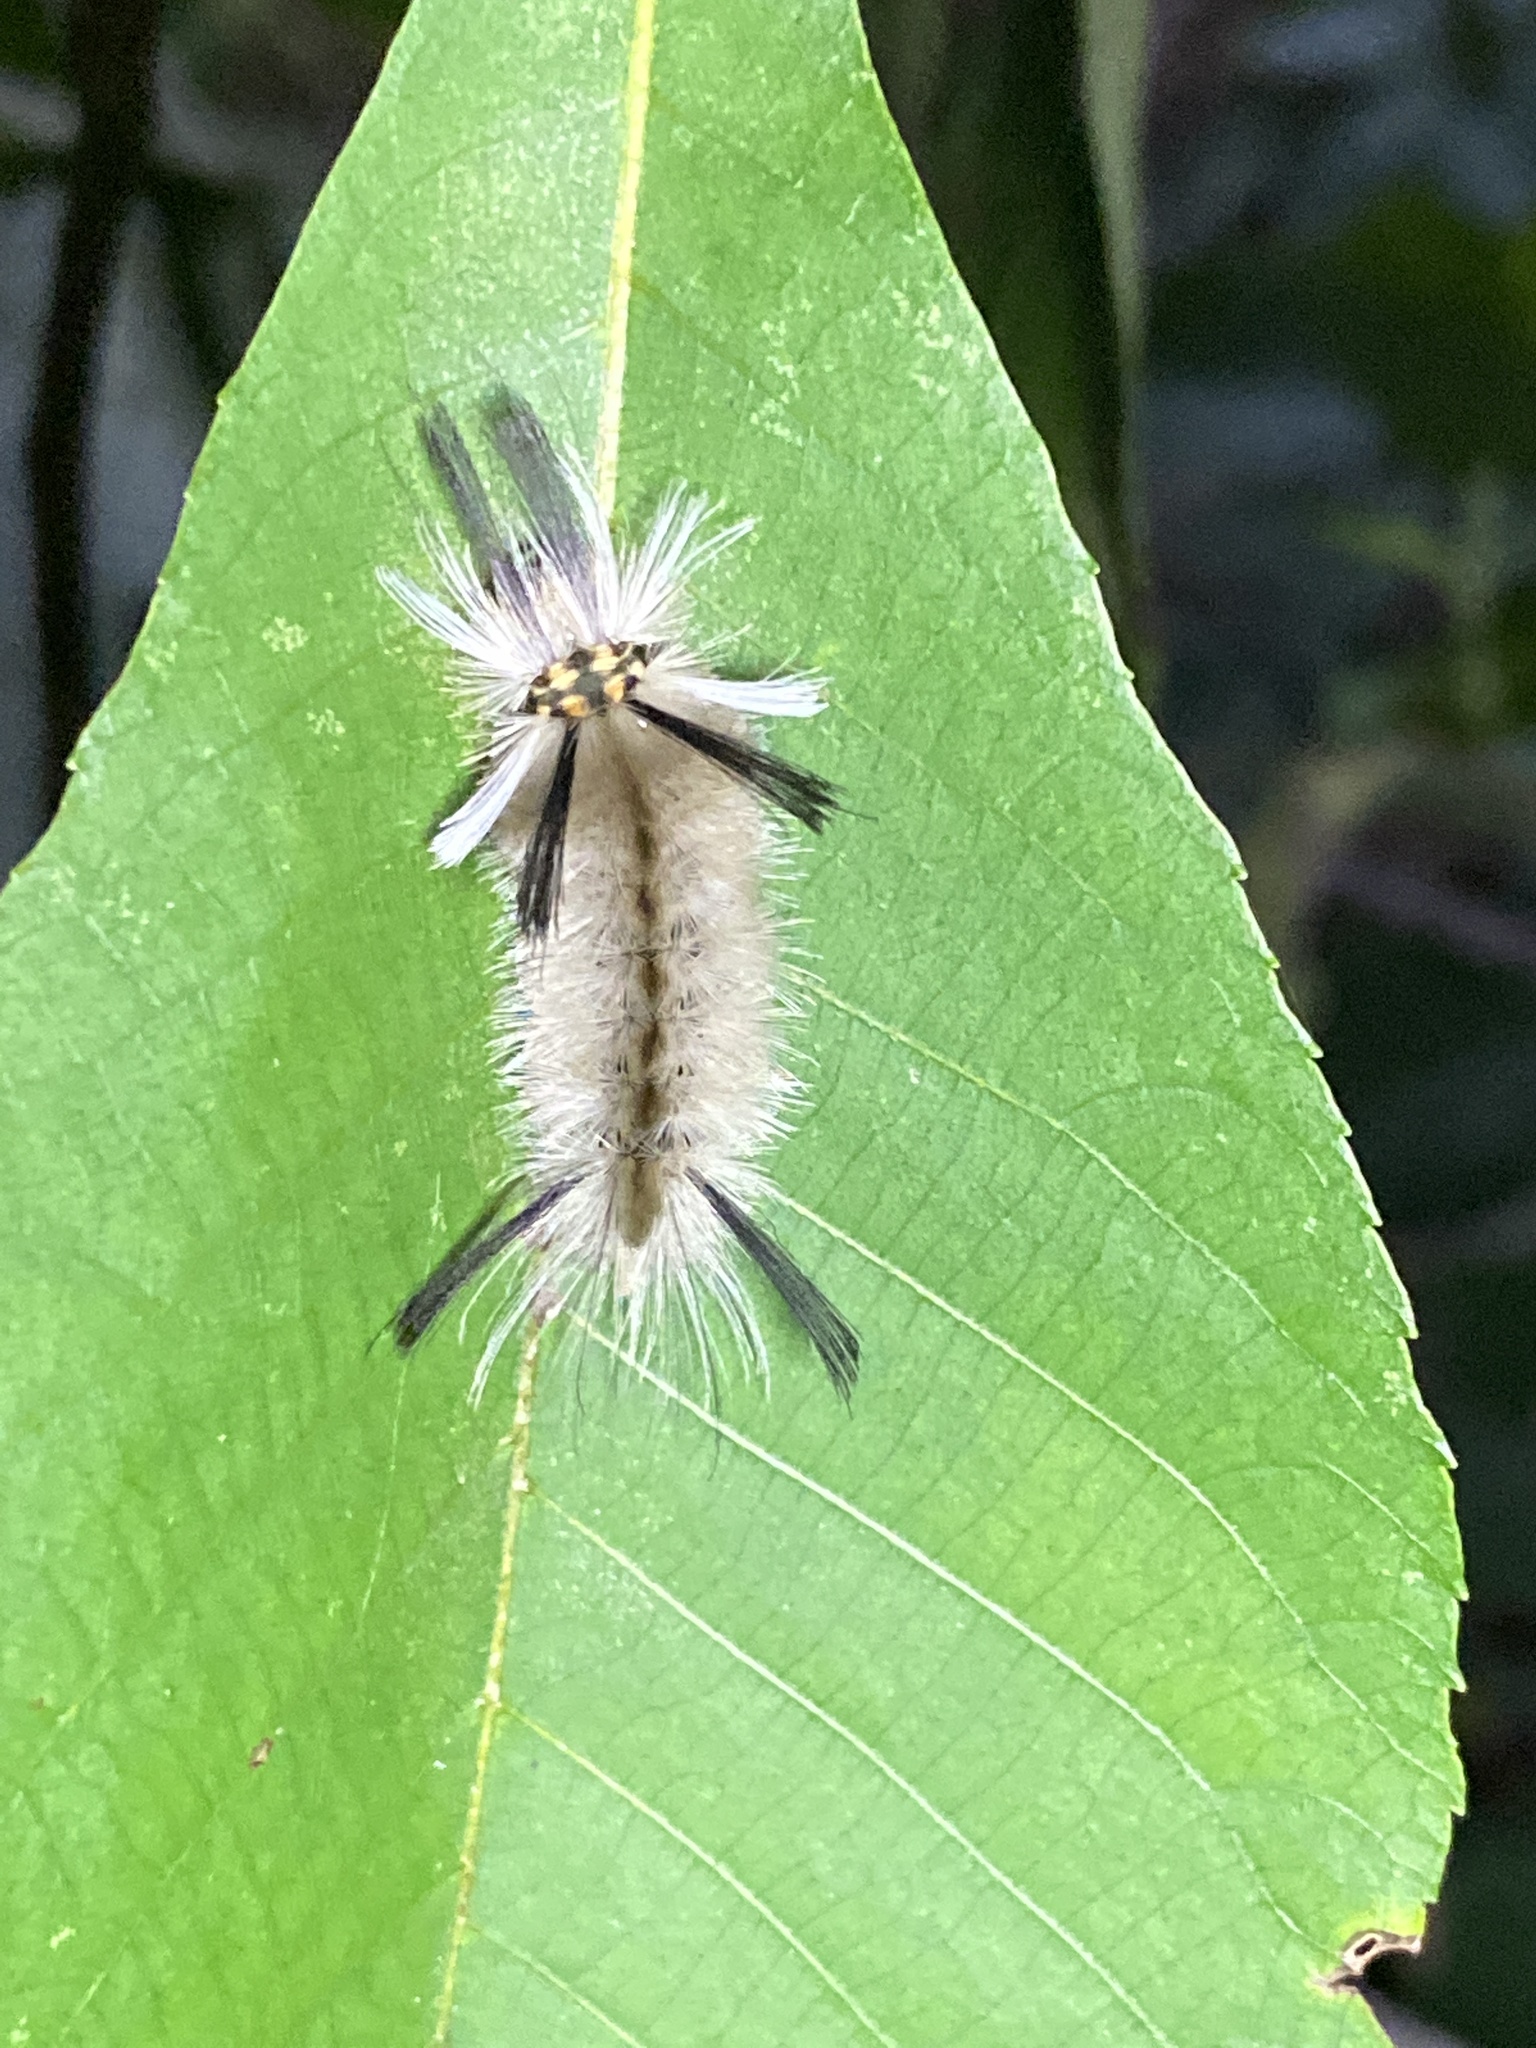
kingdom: Animalia
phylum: Arthropoda
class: Insecta
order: Lepidoptera
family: Erebidae
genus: Halysidota
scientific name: Halysidota tessellaris
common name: Banded tussock moth
